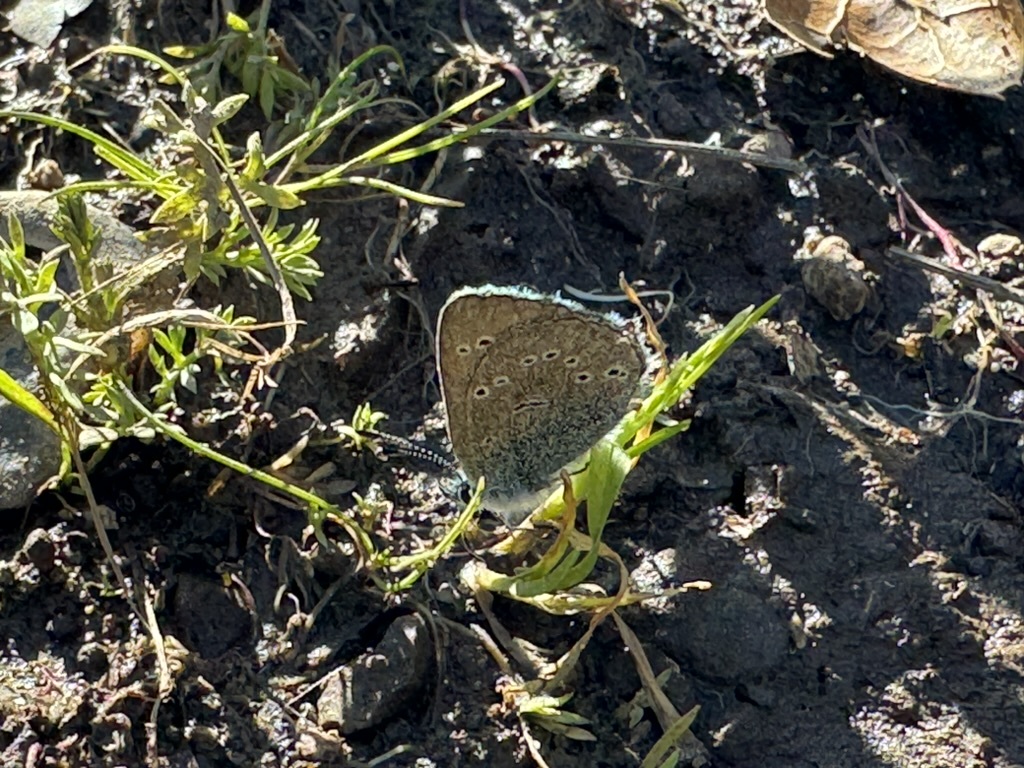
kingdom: Animalia
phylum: Arthropoda
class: Insecta
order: Lepidoptera
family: Lycaenidae
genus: Glaucopsyche
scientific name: Glaucopsyche lygdamus
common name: Silvery blue
